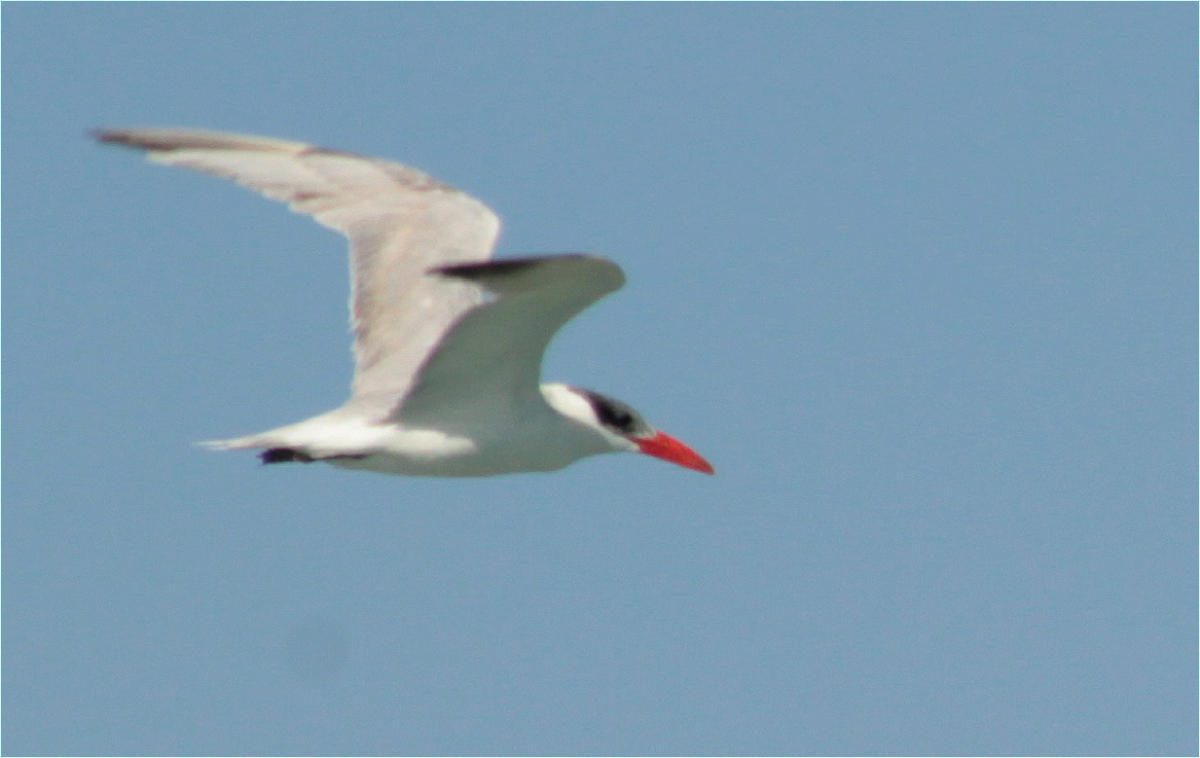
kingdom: Animalia
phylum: Chordata
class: Aves
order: Charadriiformes
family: Laridae
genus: Hydroprogne
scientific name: Hydroprogne caspia
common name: Caspian tern
